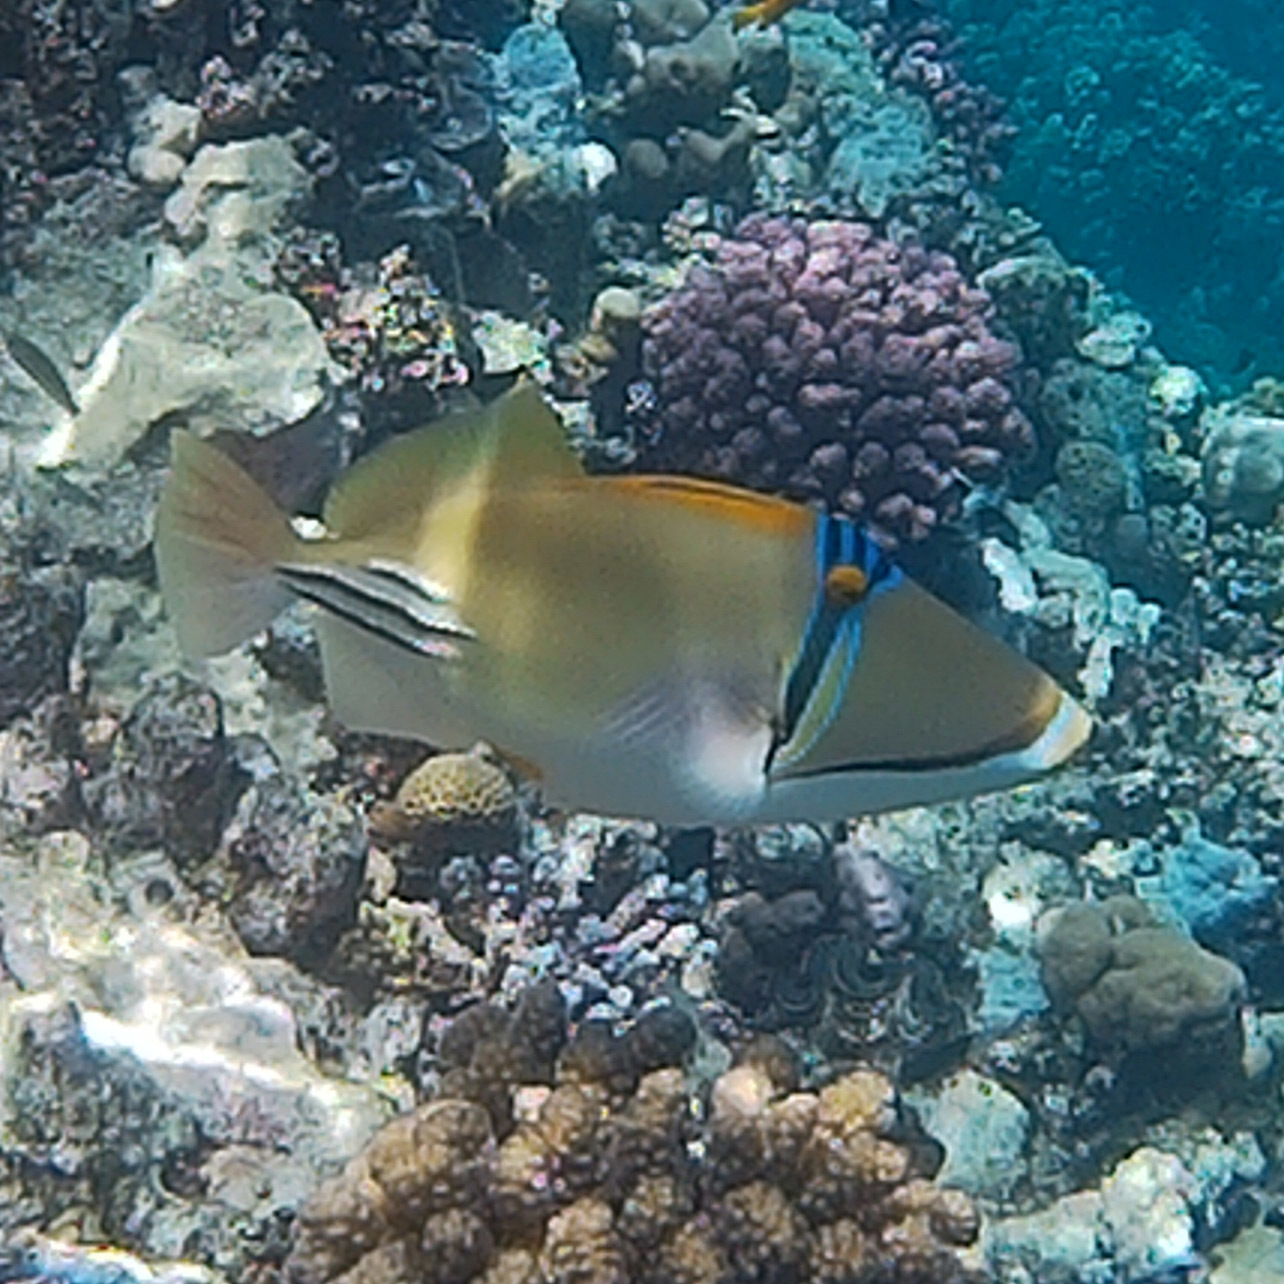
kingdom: Animalia
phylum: Chordata
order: Tetraodontiformes
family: Balistidae
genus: Rhinecanthus
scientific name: Rhinecanthus assasi
